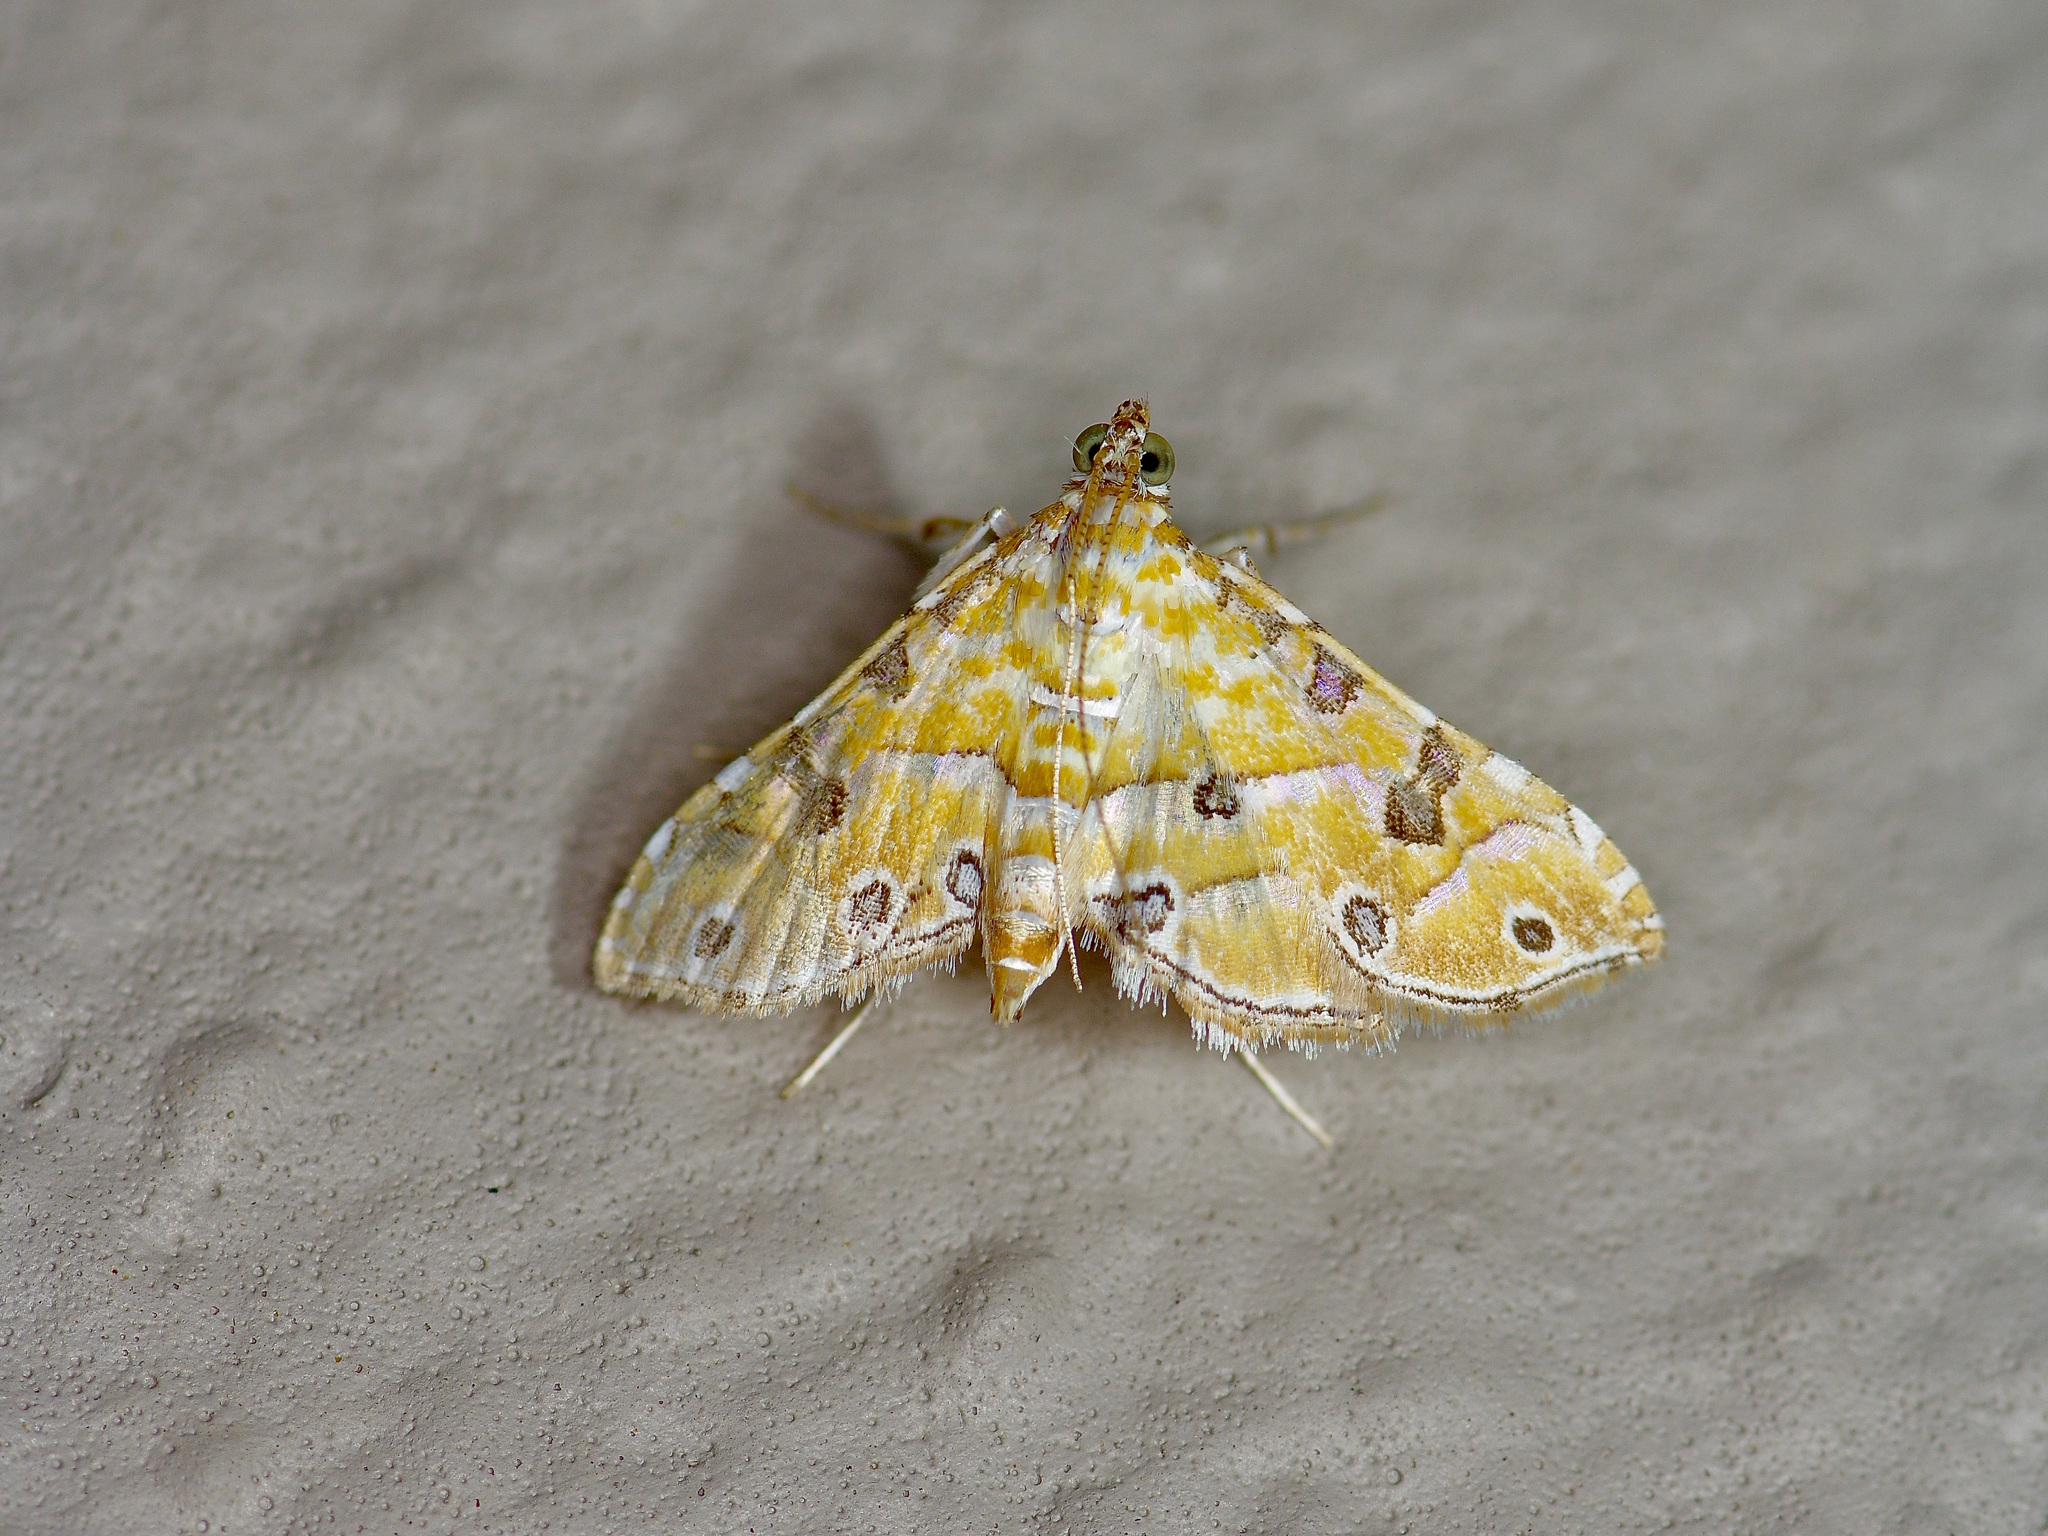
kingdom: Animalia
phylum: Arthropoda
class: Insecta
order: Lepidoptera
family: Crambidae
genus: Ommatospila
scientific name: Ommatospila narcaeusalis
